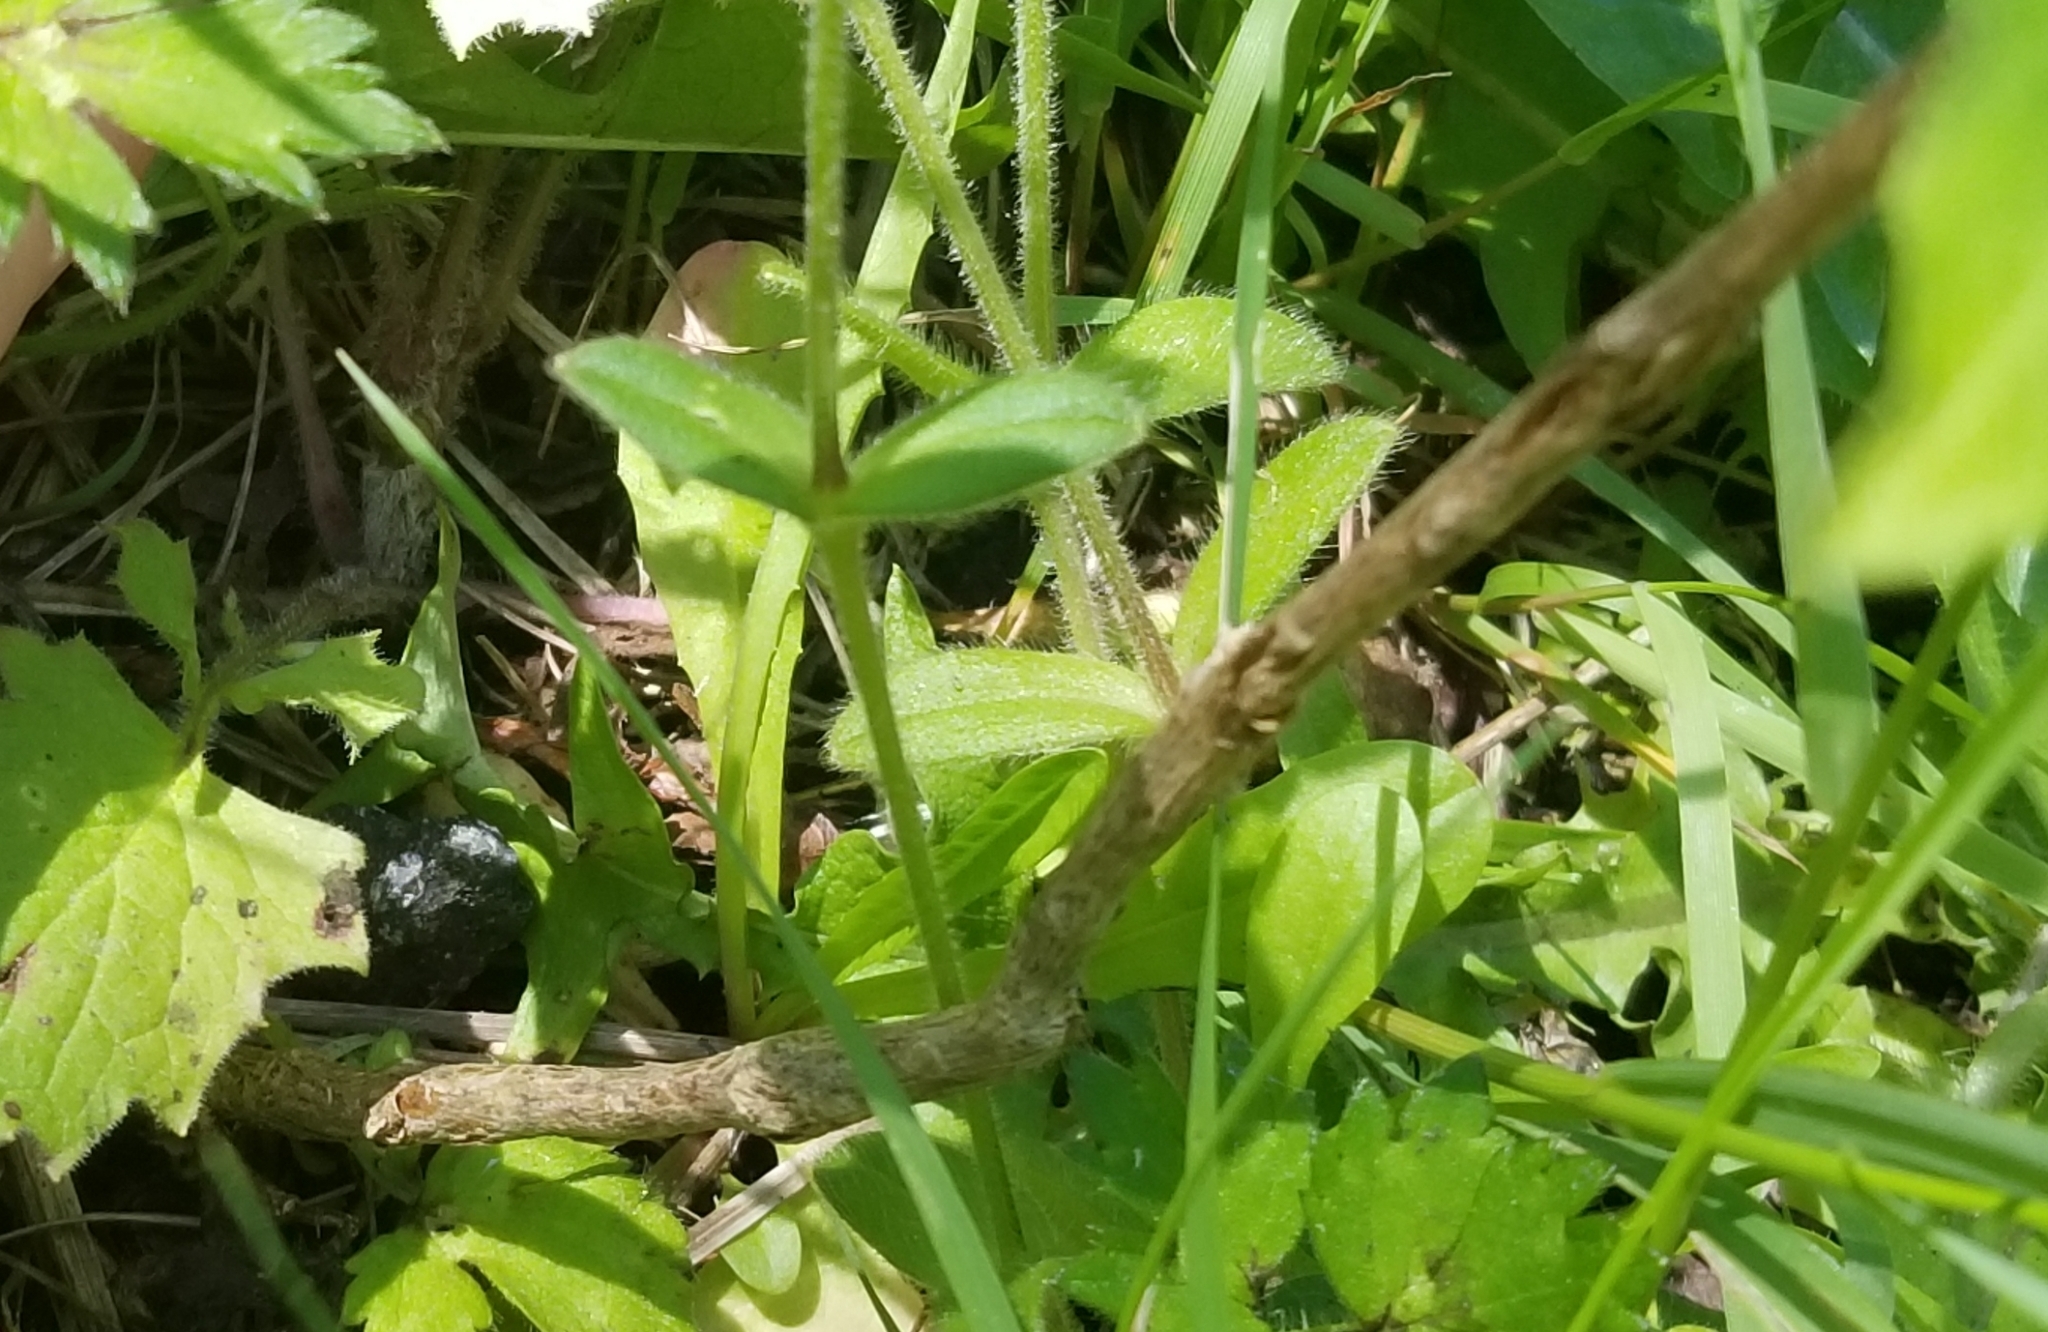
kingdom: Plantae
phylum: Tracheophyta
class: Magnoliopsida
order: Lamiales
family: Scrophulariaceae
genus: Buddleja
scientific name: Buddleja davidii
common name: Butterfly-bush
